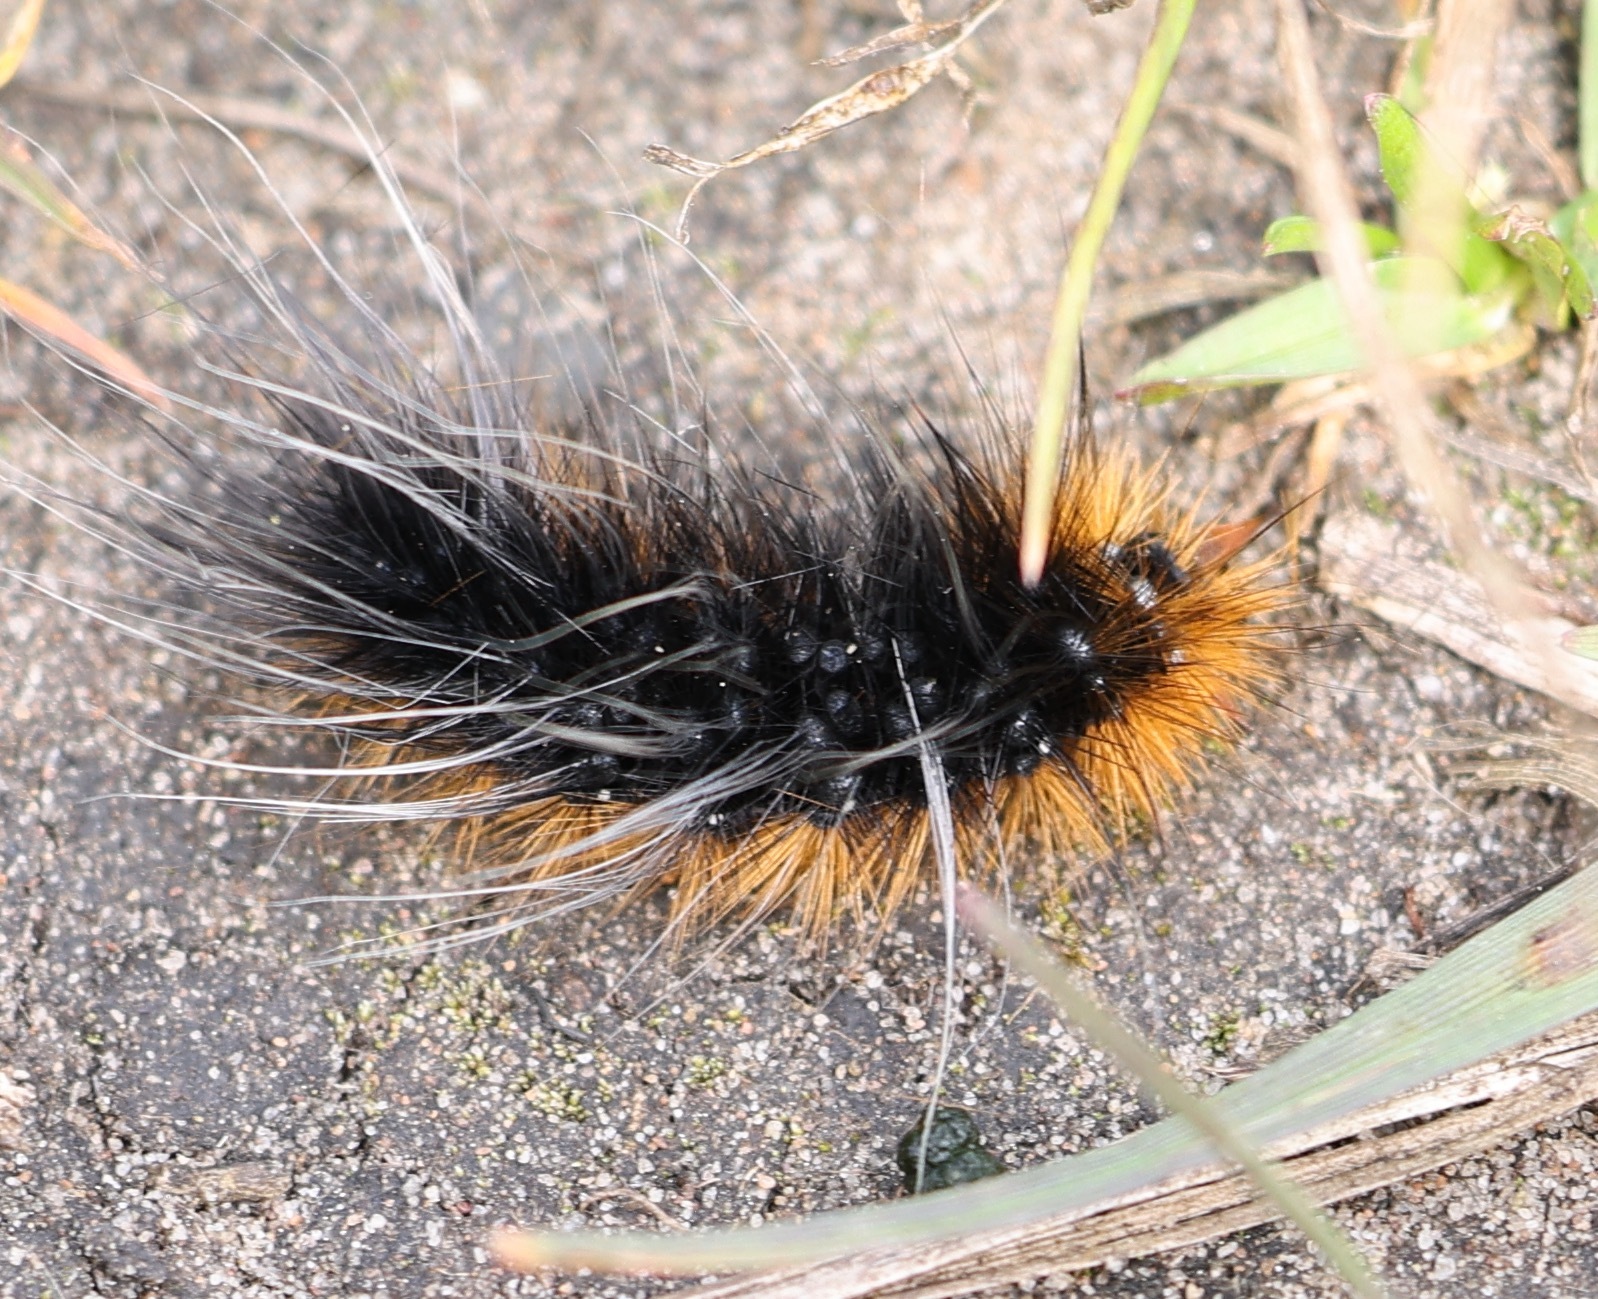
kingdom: Animalia
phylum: Arthropoda
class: Insecta
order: Lepidoptera
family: Erebidae
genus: Arctia
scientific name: Arctia caja
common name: Garden tiger
